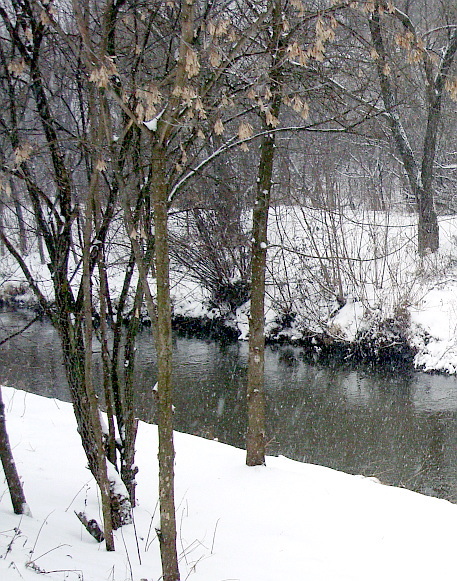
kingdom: Plantae
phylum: Tracheophyta
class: Magnoliopsida
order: Sapindales
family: Sapindaceae
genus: Acer
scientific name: Acer negundo
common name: Ashleaf maple
